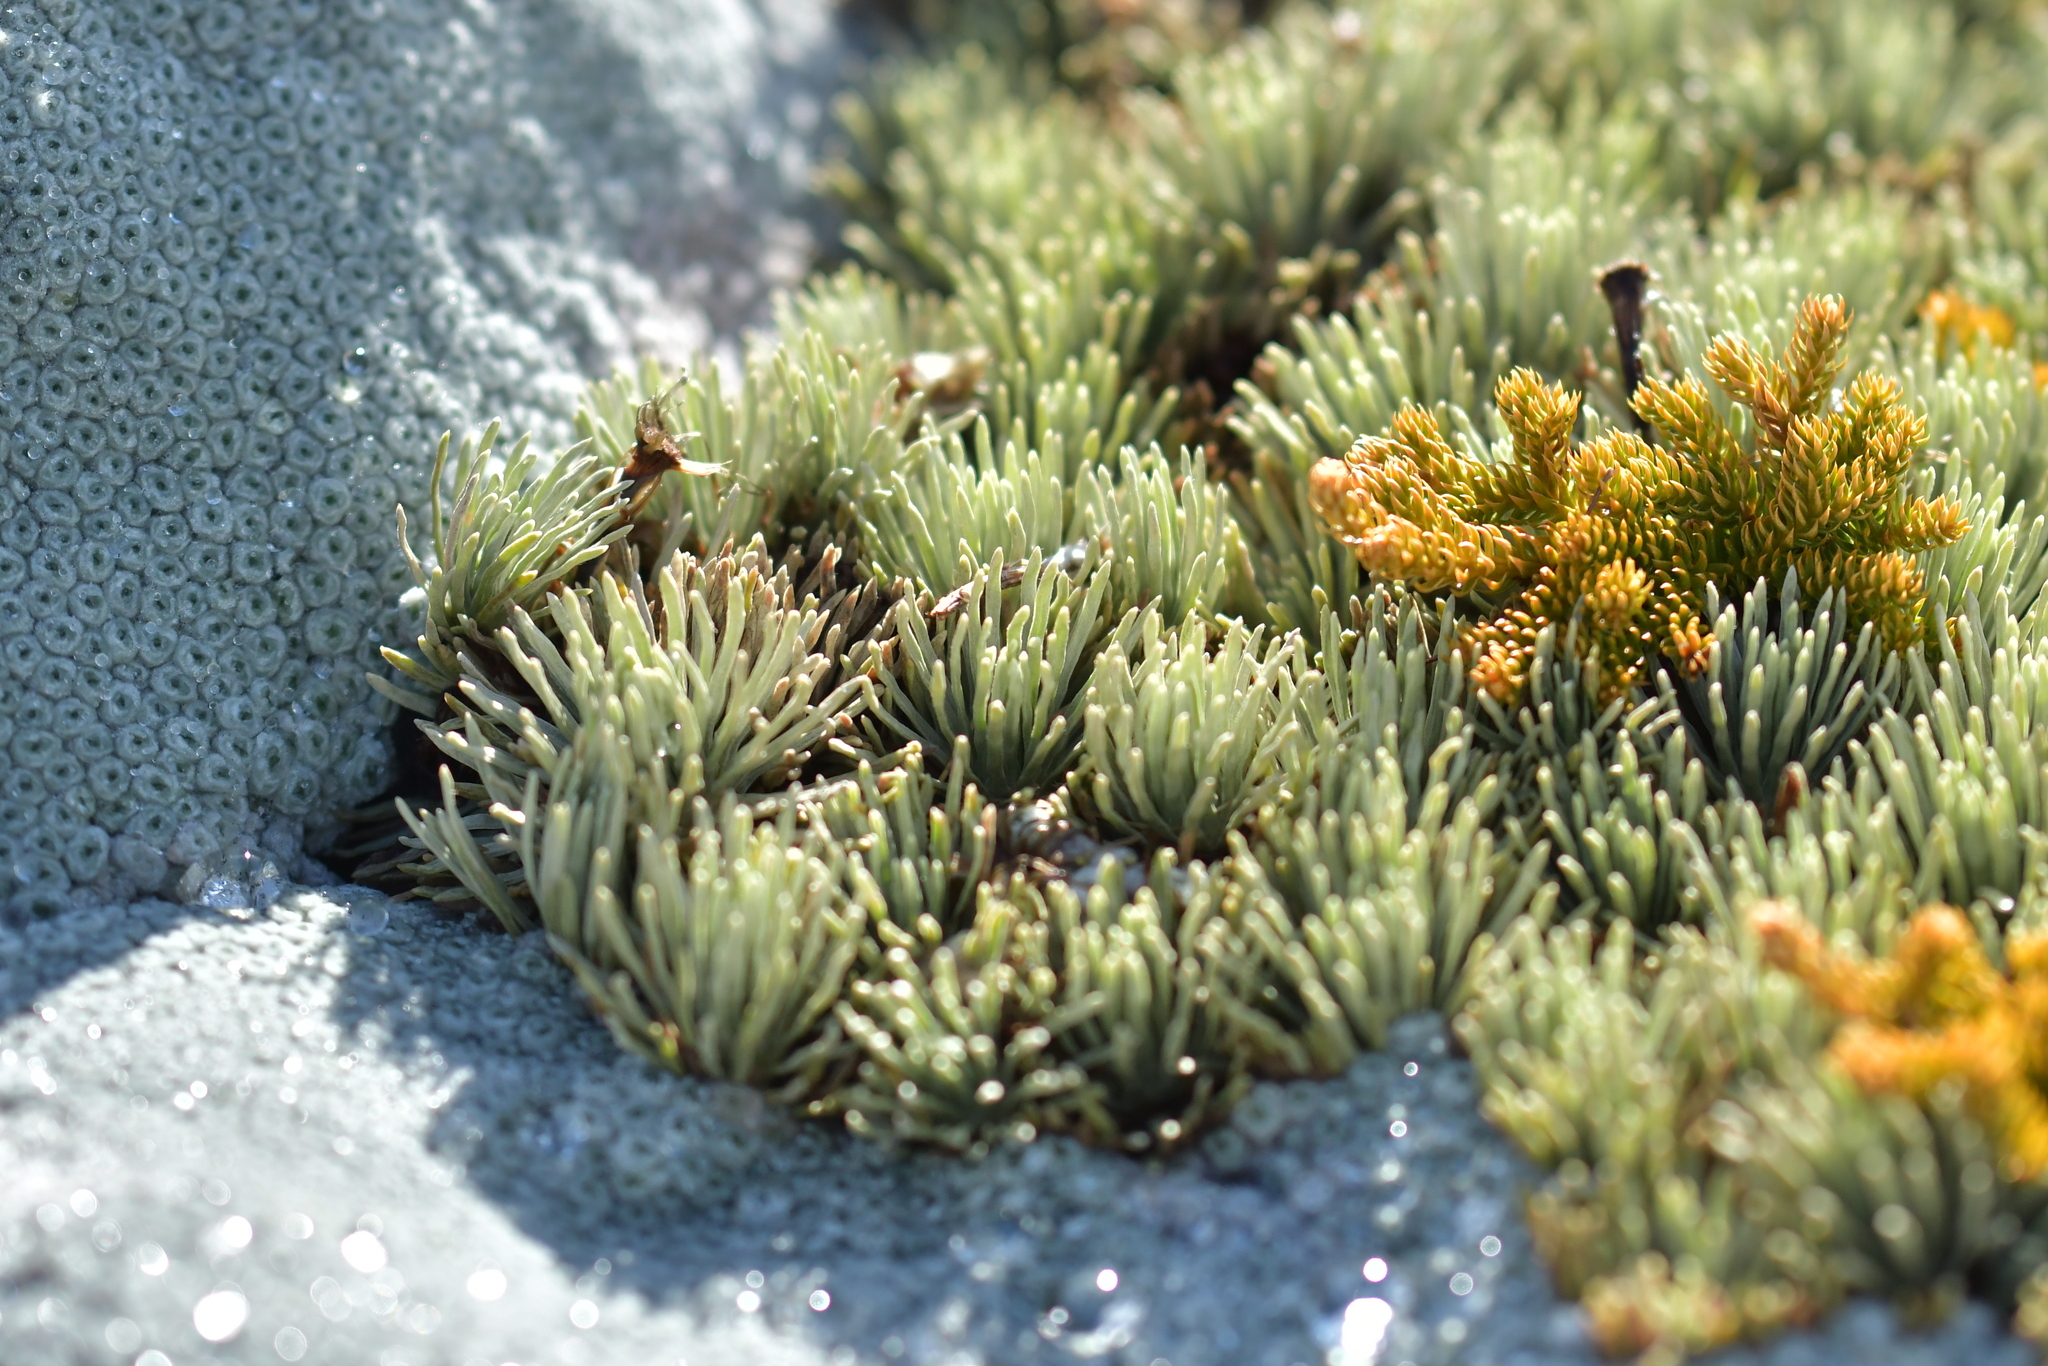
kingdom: Plantae
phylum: Tracheophyta
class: Magnoliopsida
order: Asterales
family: Asteraceae
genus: Celmisia
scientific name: Celmisia sessiliflora
